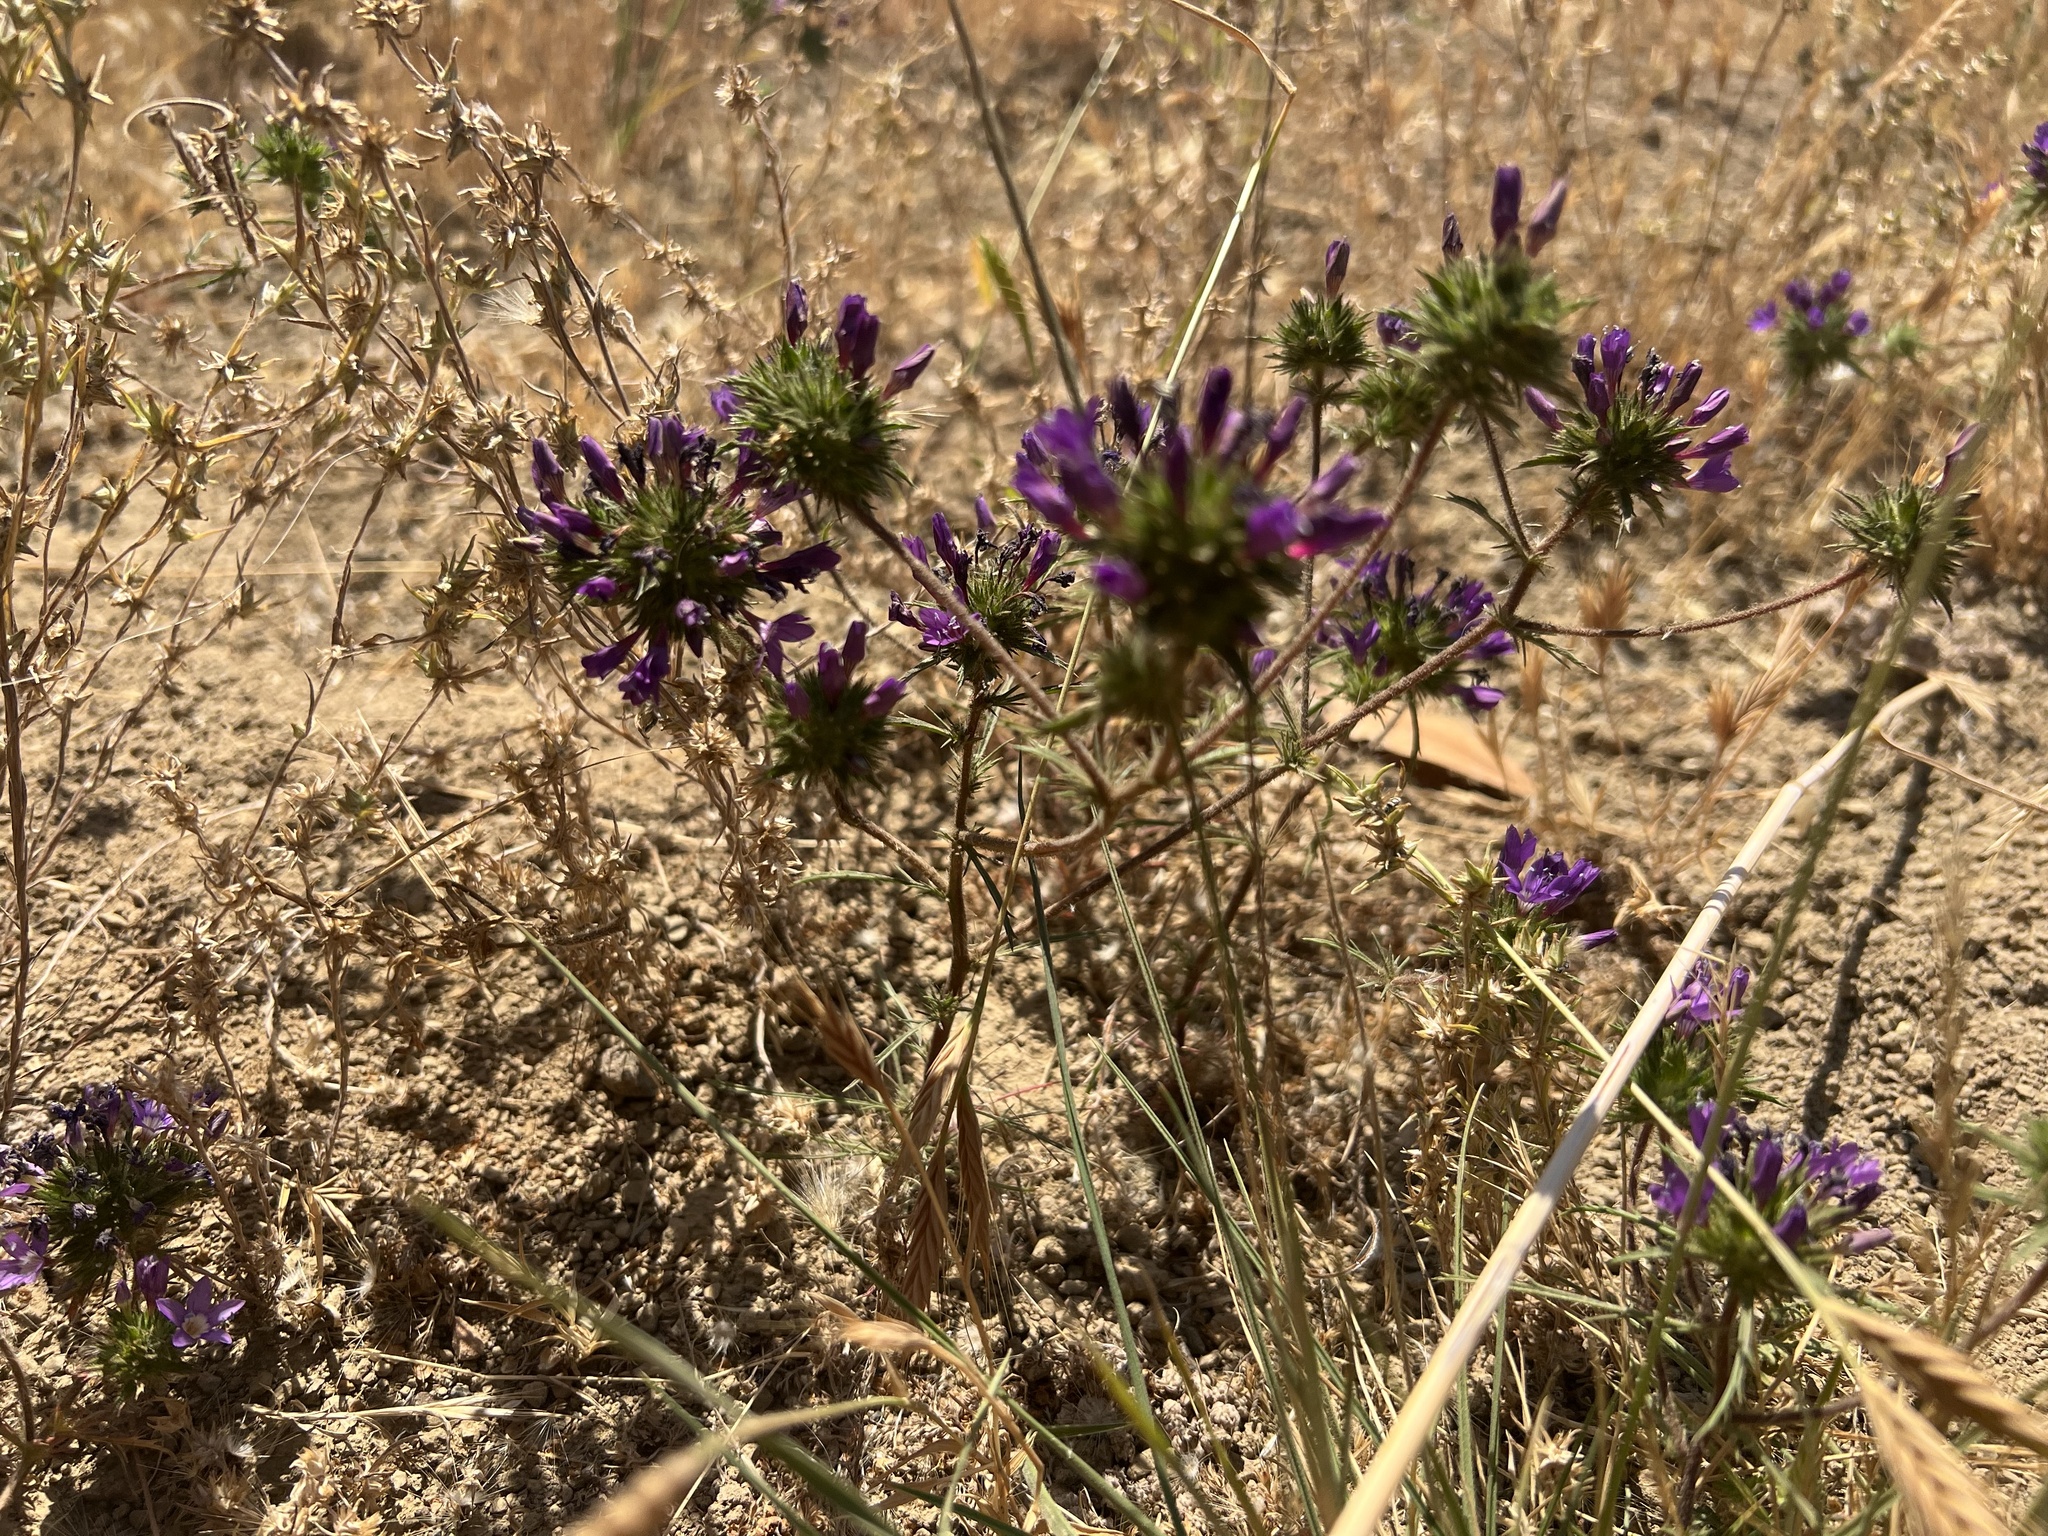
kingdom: Plantae
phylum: Tracheophyta
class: Magnoliopsida
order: Ericales
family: Polemoniaceae
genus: Navarretia
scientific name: Navarretia viscidula
